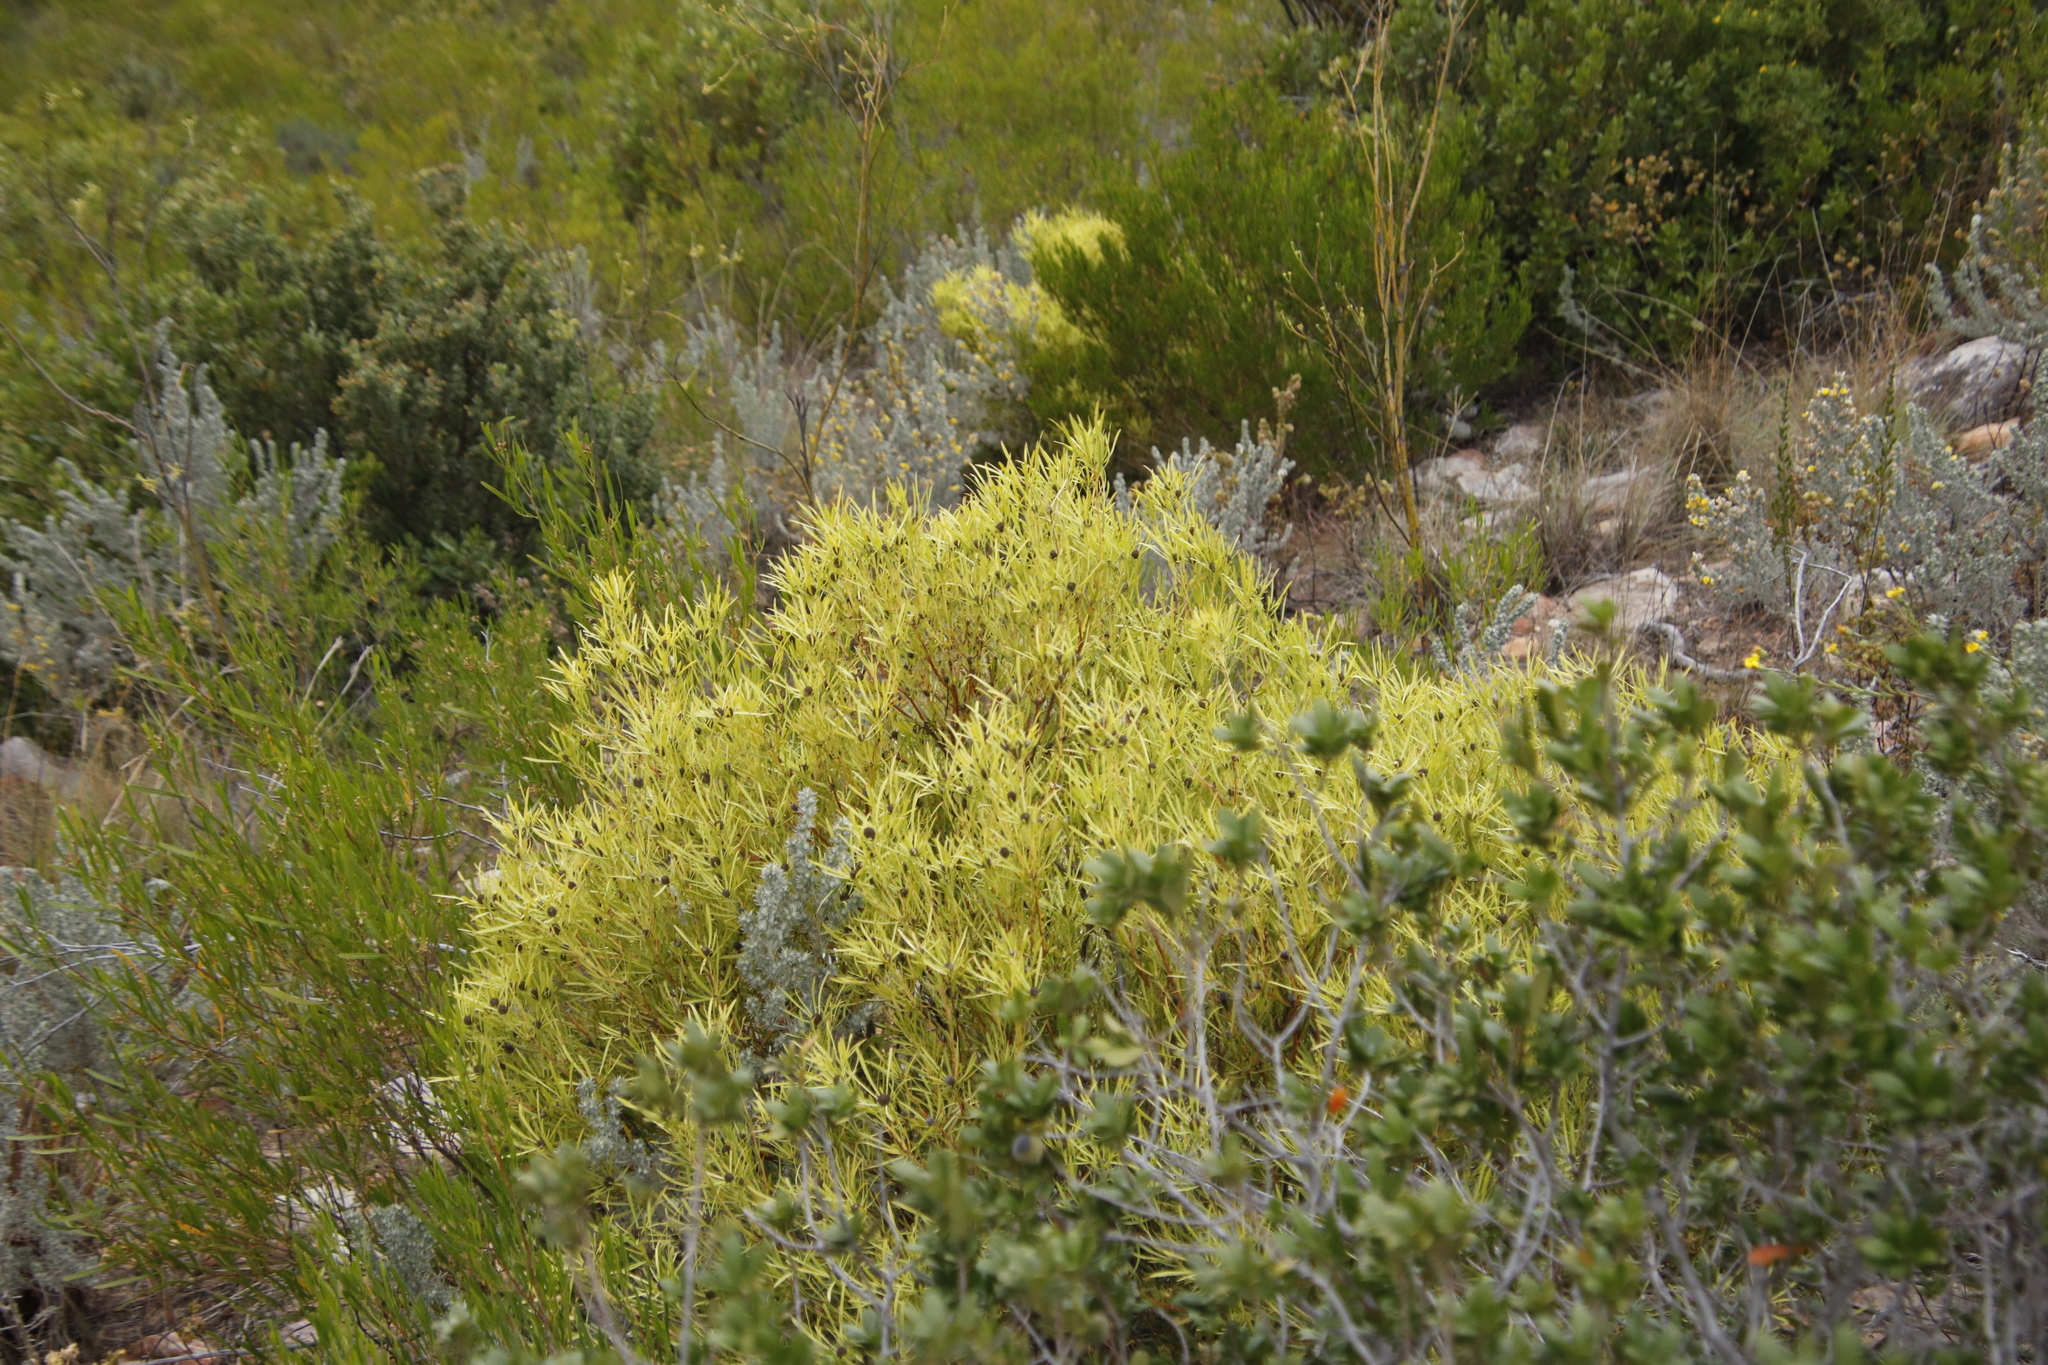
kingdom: Plantae
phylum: Tracheophyta
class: Magnoliopsida
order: Proteales
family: Proteaceae
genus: Leucadendron
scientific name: Leucadendron salignum
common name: Common sunshine conebush
